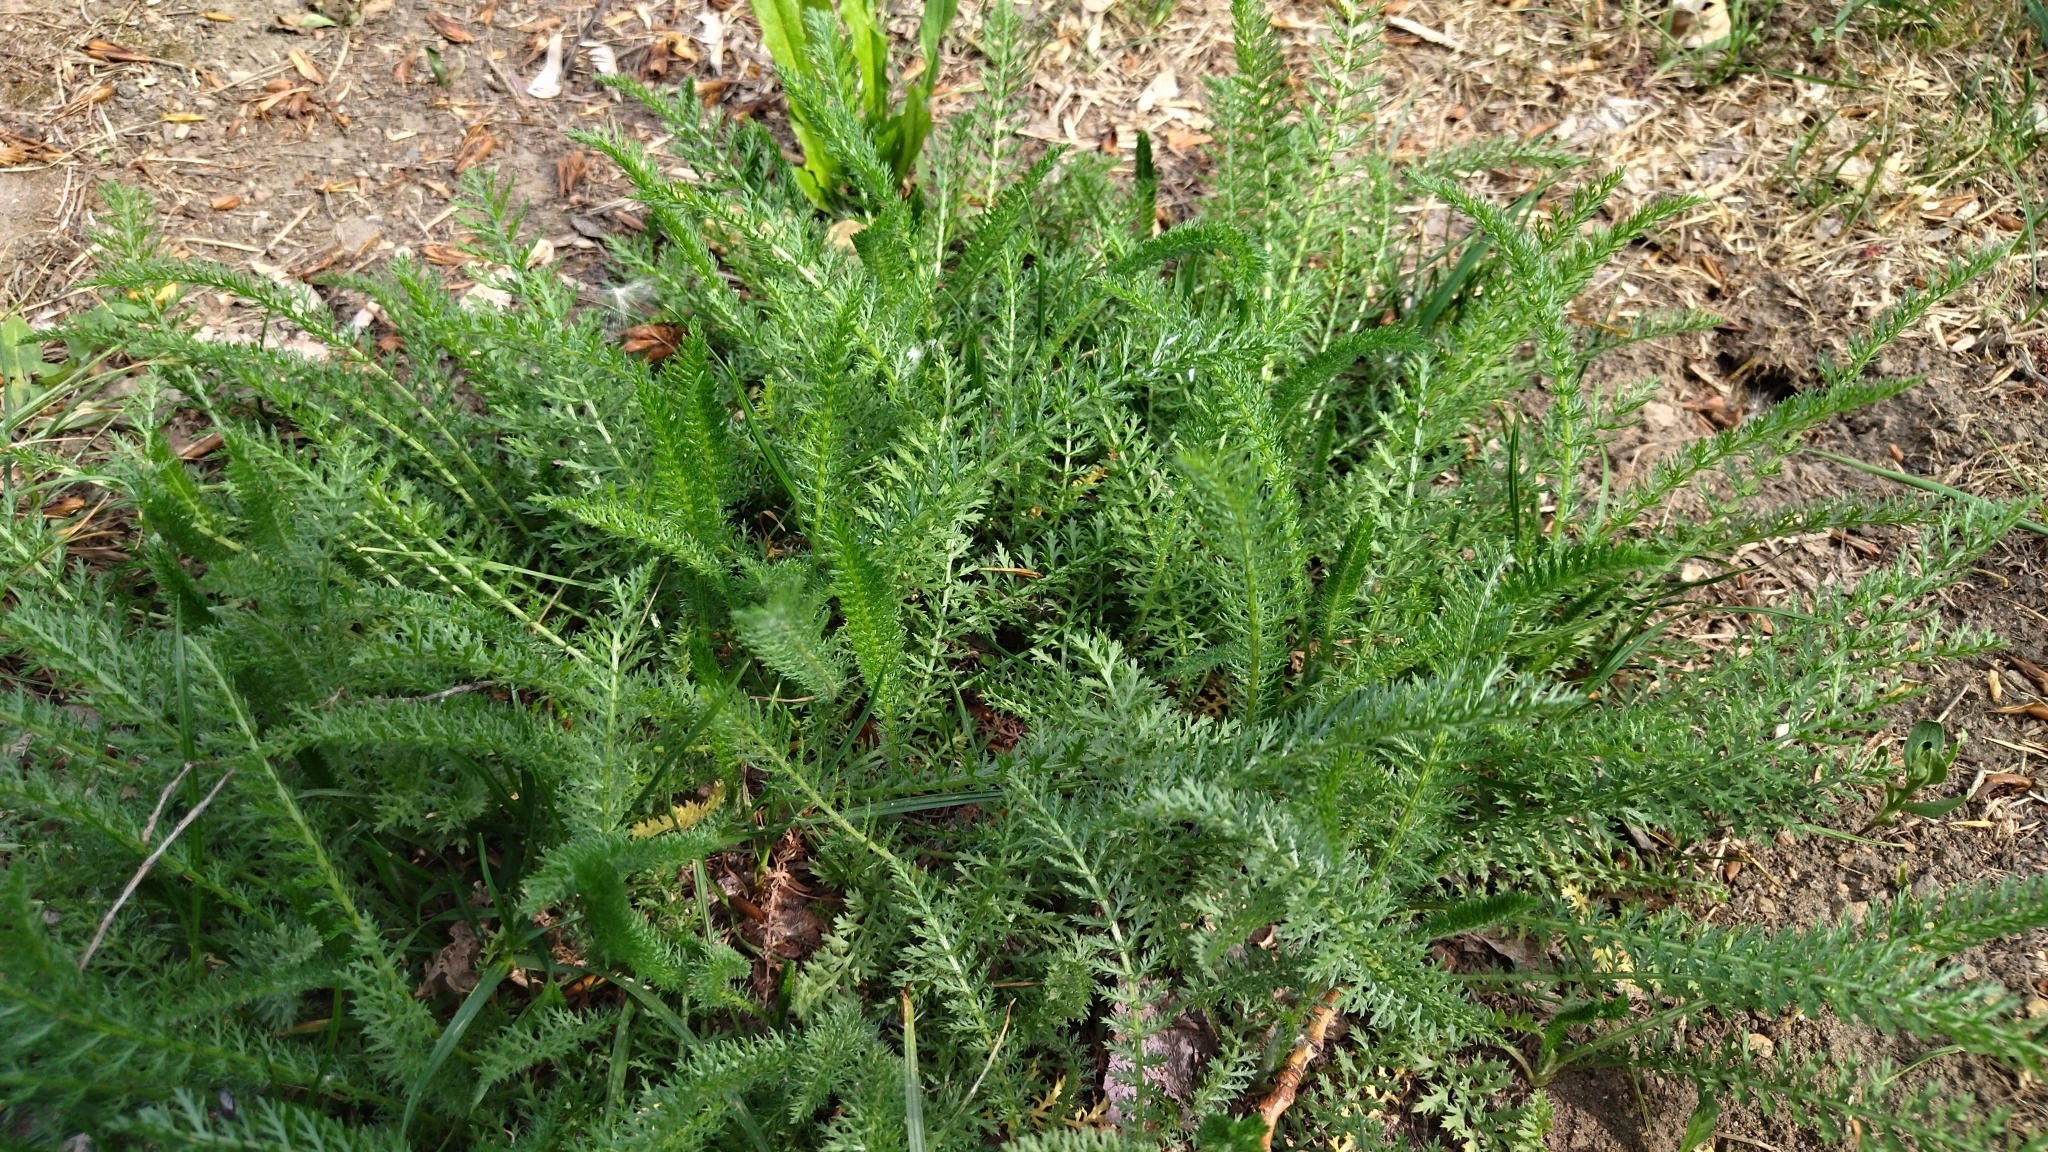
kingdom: Plantae
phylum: Tracheophyta
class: Magnoliopsida
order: Asterales
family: Asteraceae
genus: Achillea
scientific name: Achillea millefolium
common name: Yarrow
